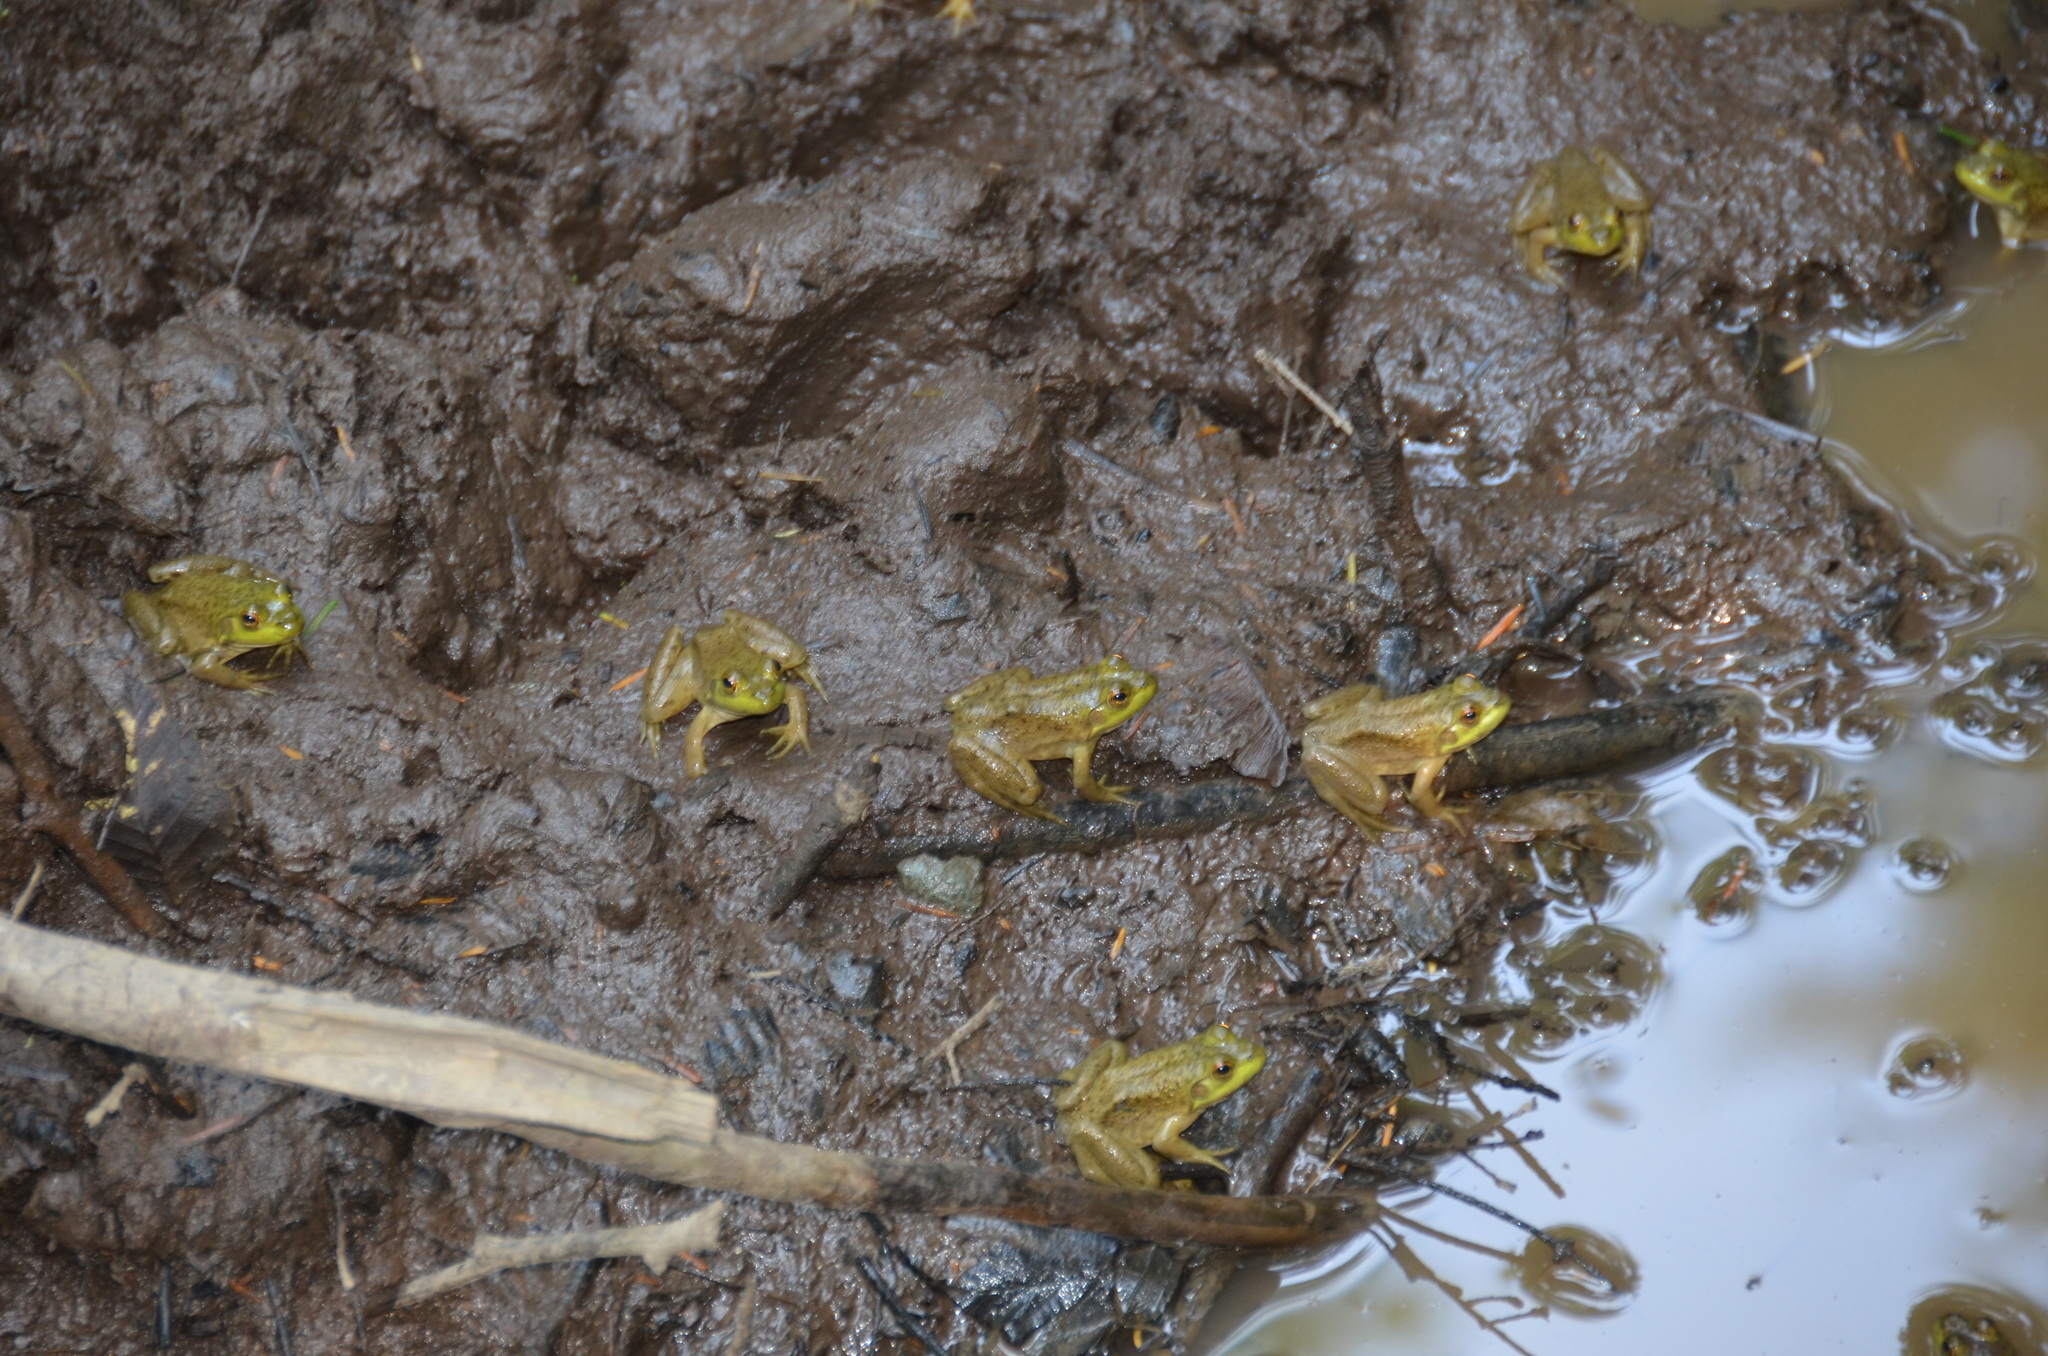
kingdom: Animalia
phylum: Chordata
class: Amphibia
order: Anura
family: Ranidae
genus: Lithobates
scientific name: Lithobates catesbeianus
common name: American bullfrog
